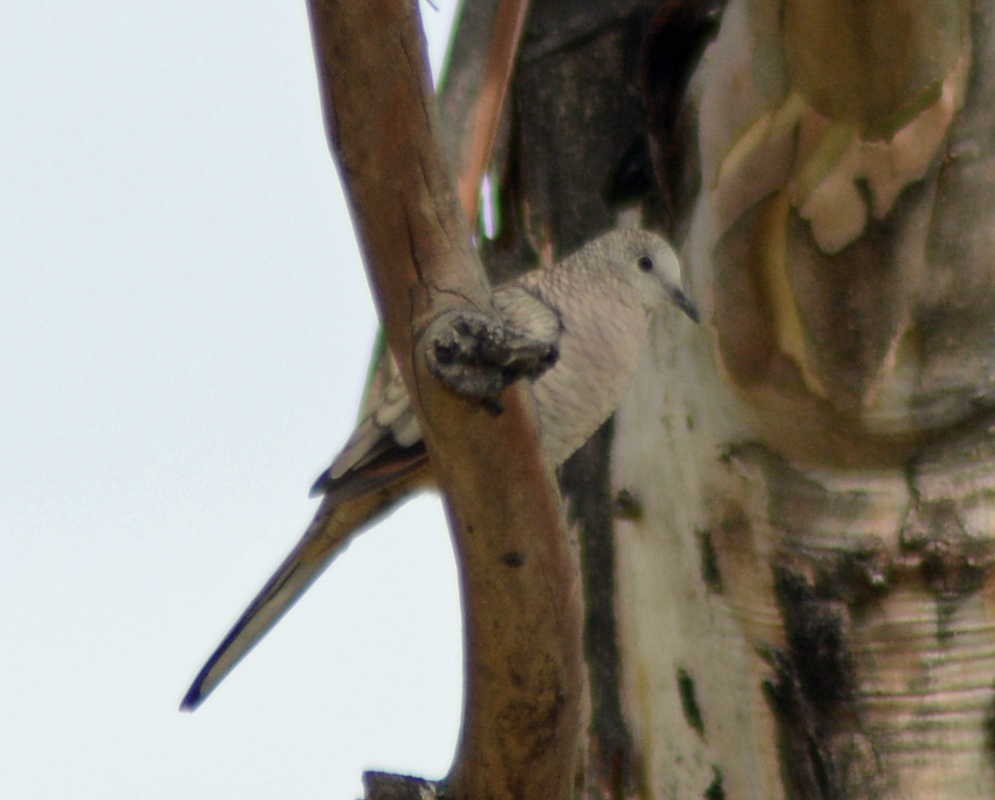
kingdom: Animalia
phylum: Chordata
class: Aves
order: Columbiformes
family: Columbidae
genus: Columbina
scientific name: Columbina inca
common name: Inca dove
